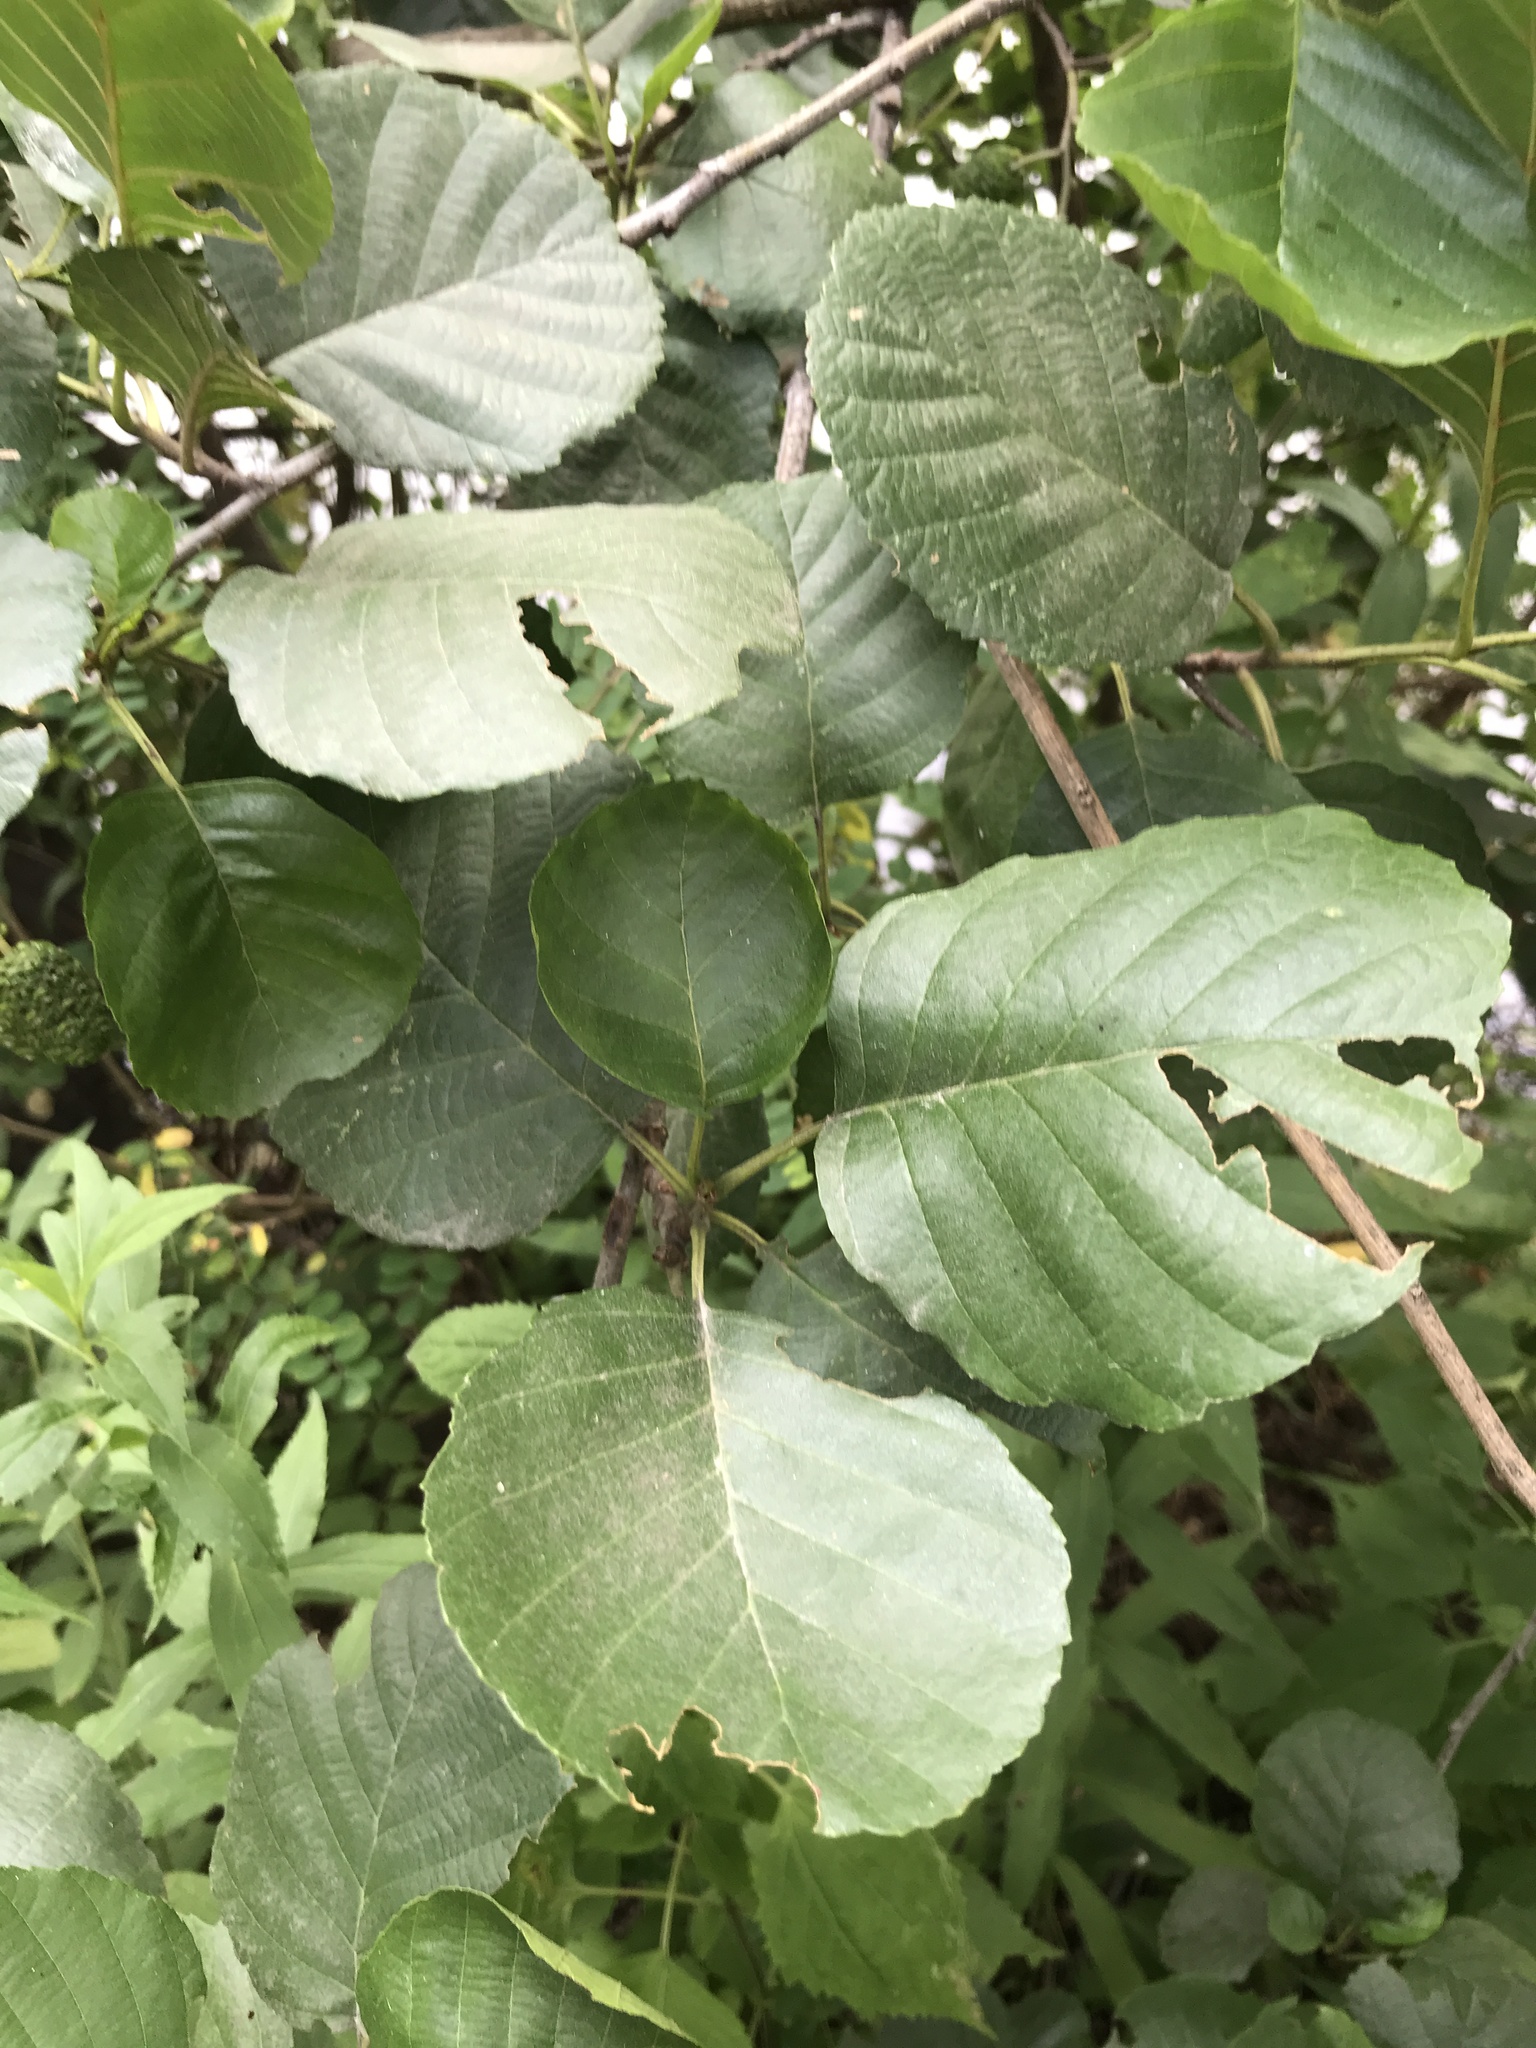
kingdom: Plantae
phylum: Tracheophyta
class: Magnoliopsida
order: Fagales
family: Betulaceae
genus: Alnus
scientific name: Alnus glutinosa
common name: Black alder
